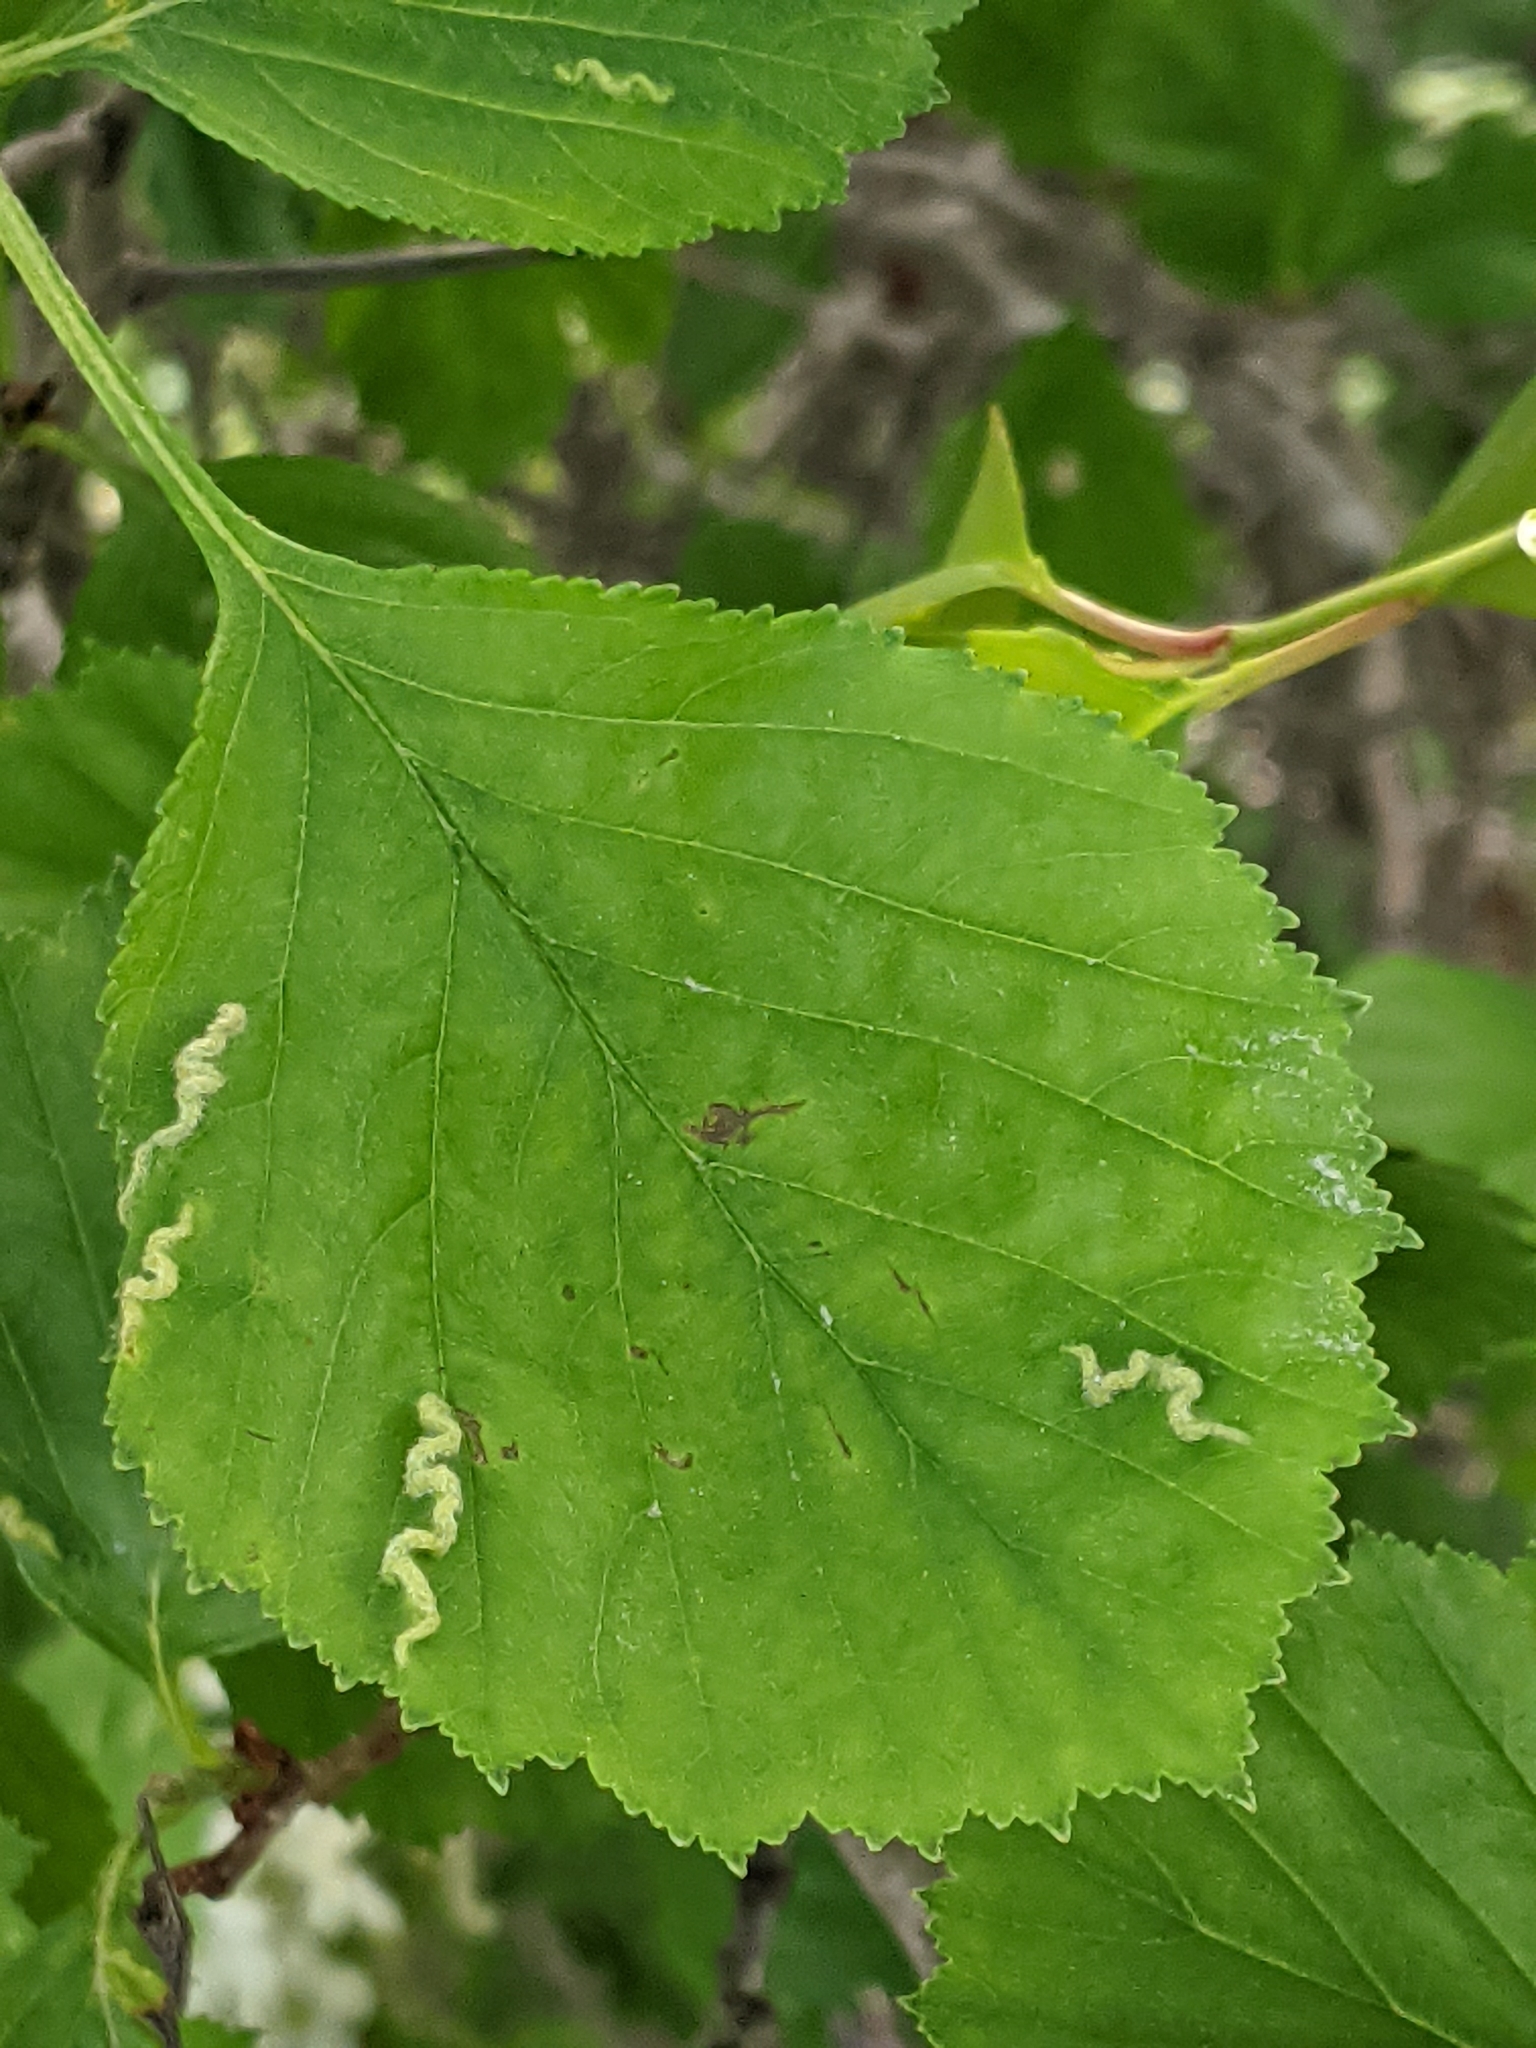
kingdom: Plantae
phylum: Tracheophyta
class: Magnoliopsida
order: Rosales
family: Rosaceae
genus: Crataegus
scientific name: Crataegus macracantha
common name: Large-thorn hawthorn
